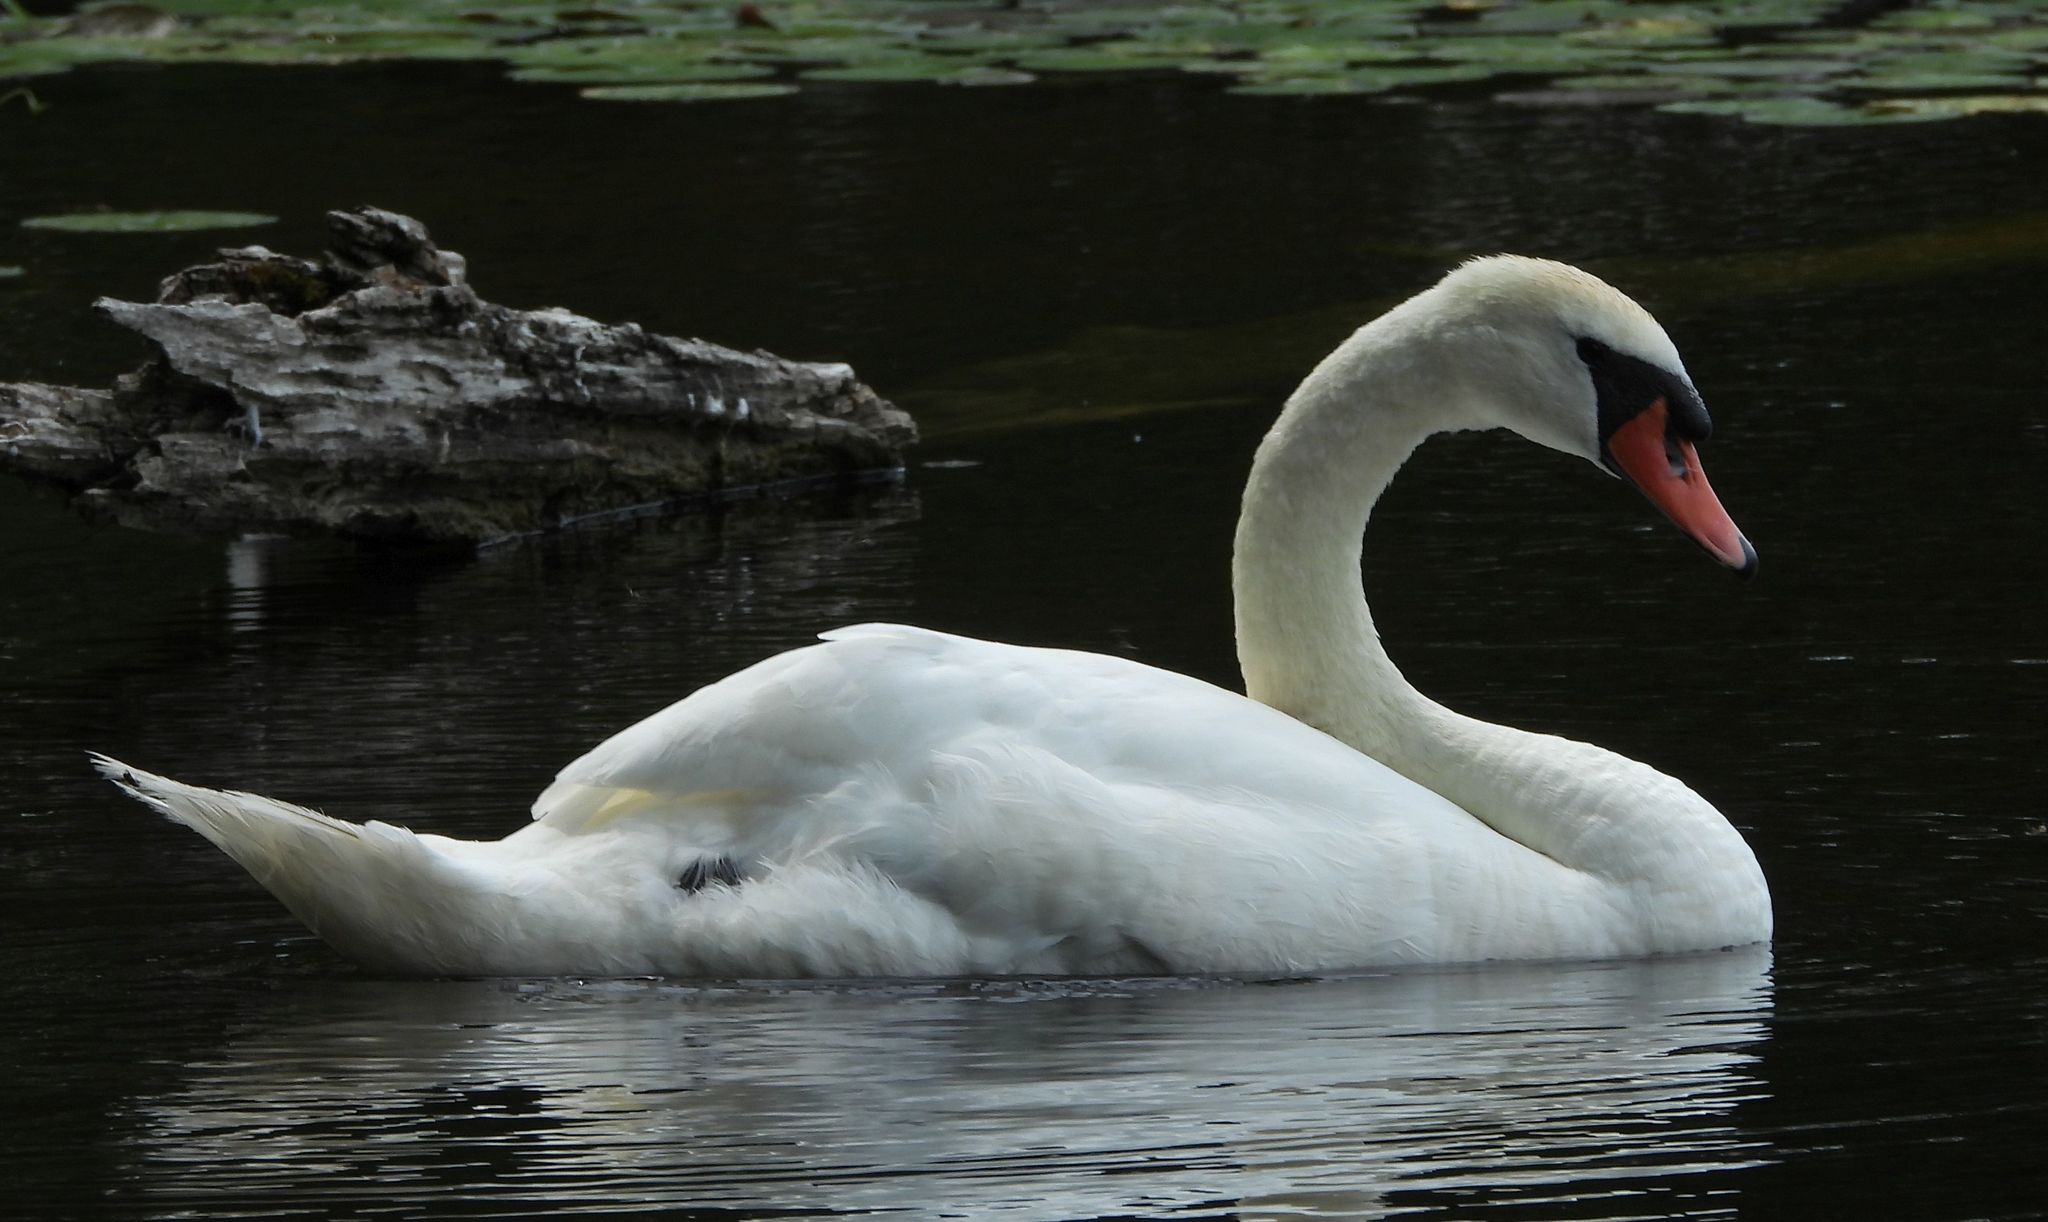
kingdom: Animalia
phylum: Chordata
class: Aves
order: Anseriformes
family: Anatidae
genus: Cygnus
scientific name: Cygnus olor
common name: Mute swan
